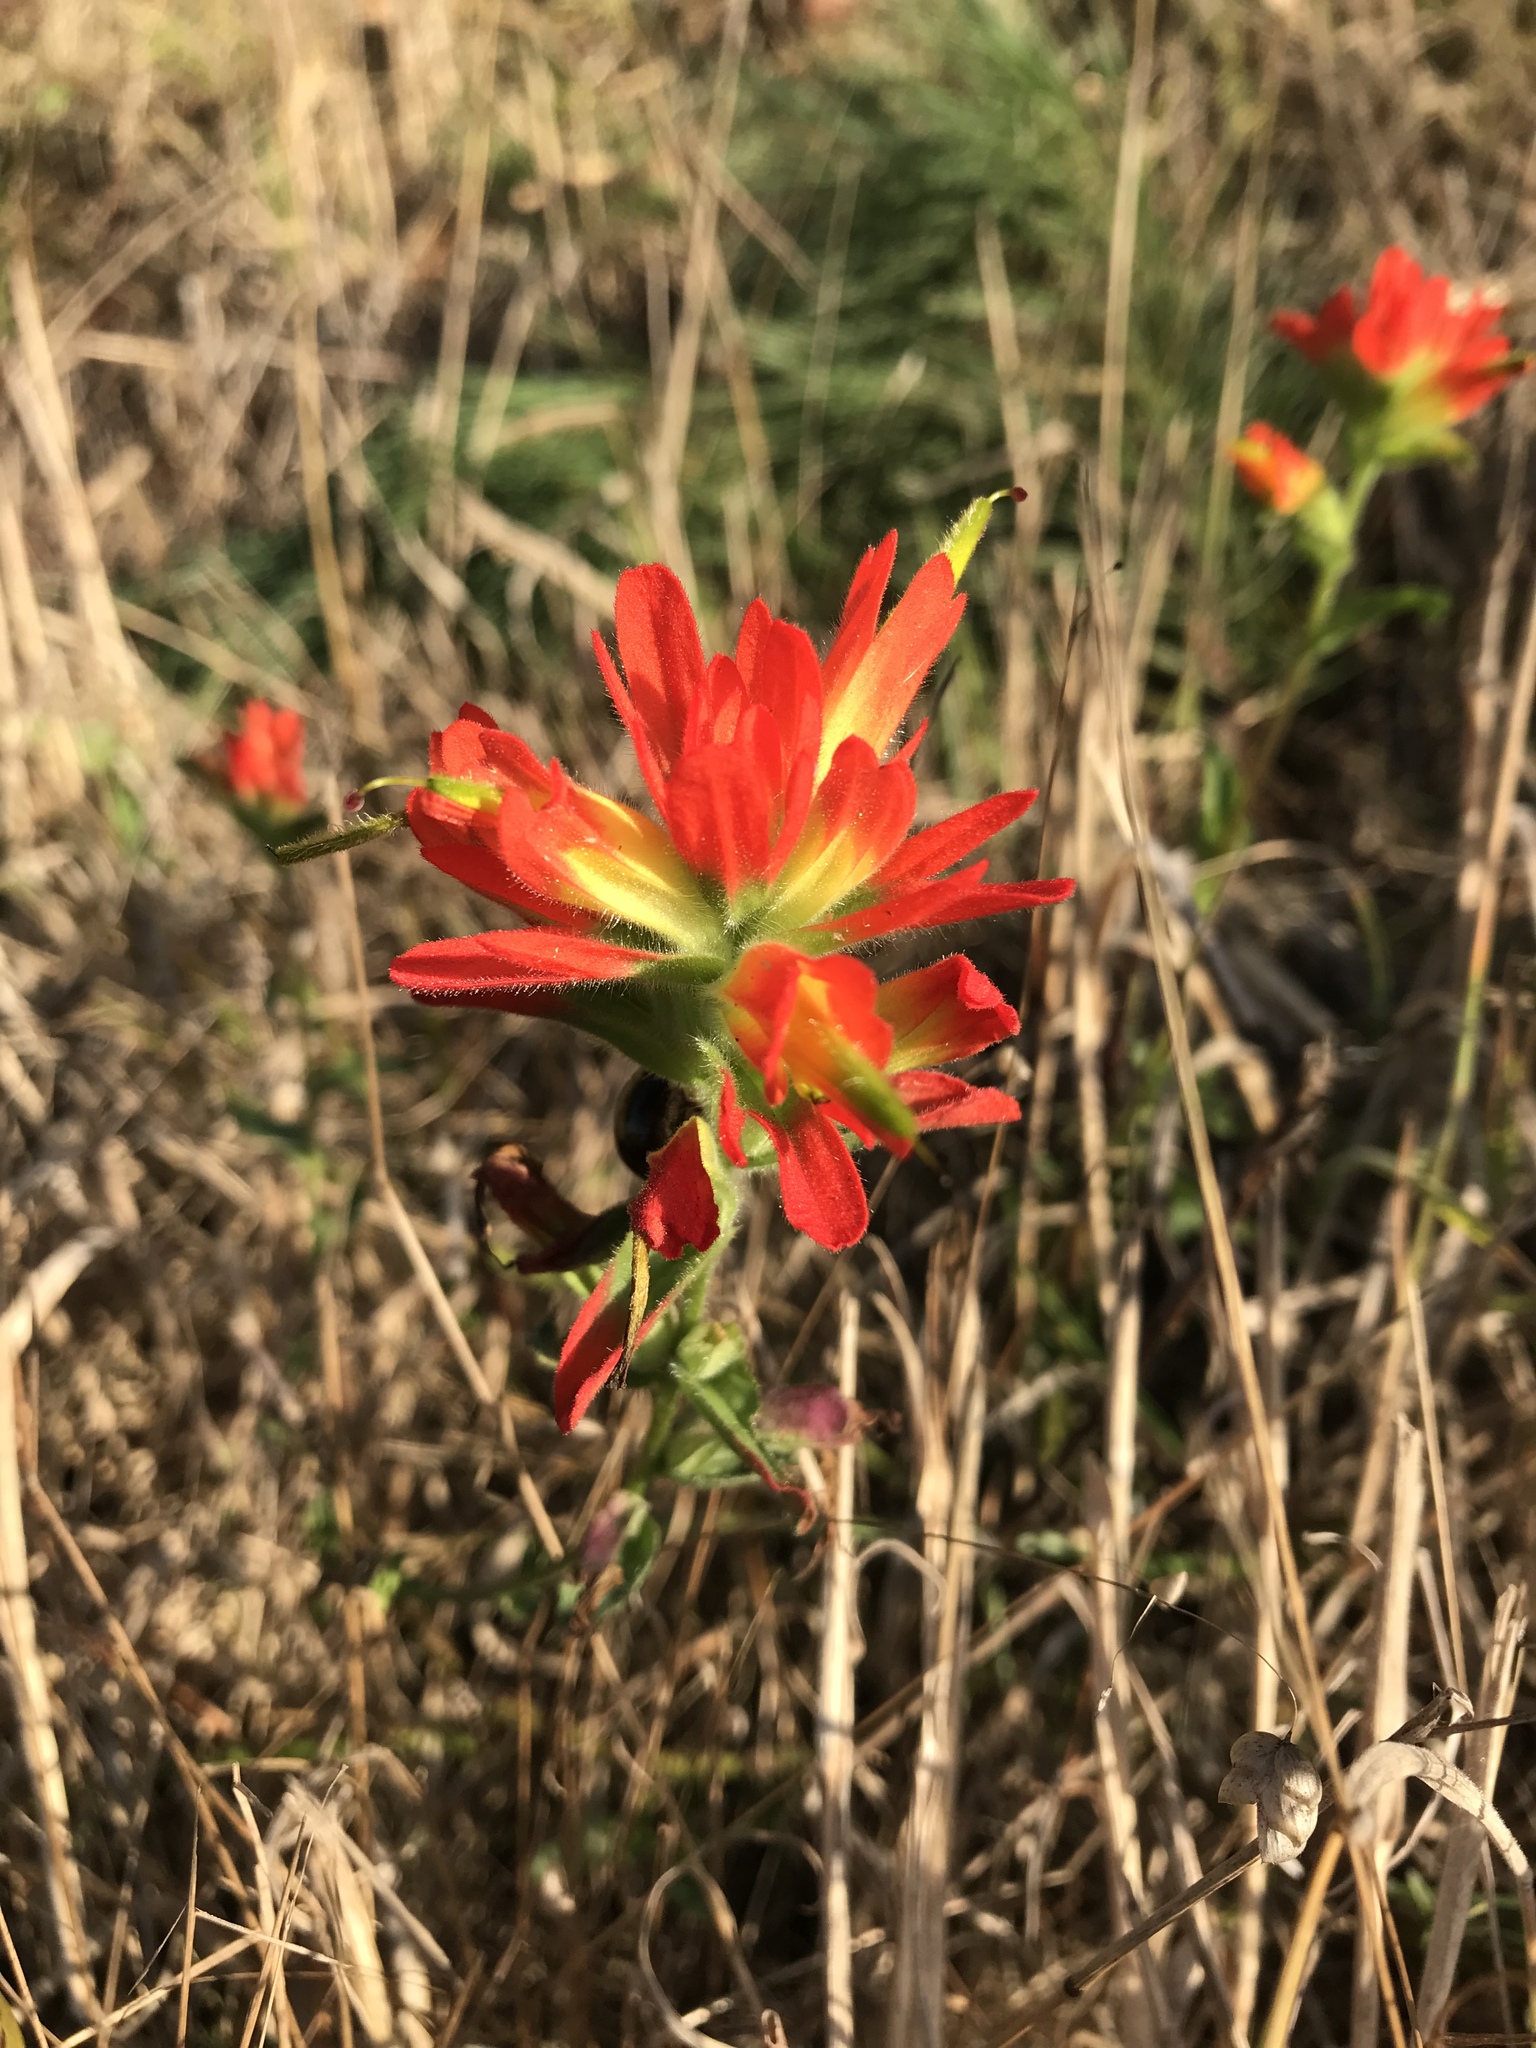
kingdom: Plantae
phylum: Tracheophyta
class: Magnoliopsida
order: Lamiales
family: Orobanchaceae
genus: Castilleja
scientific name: Castilleja affinis
